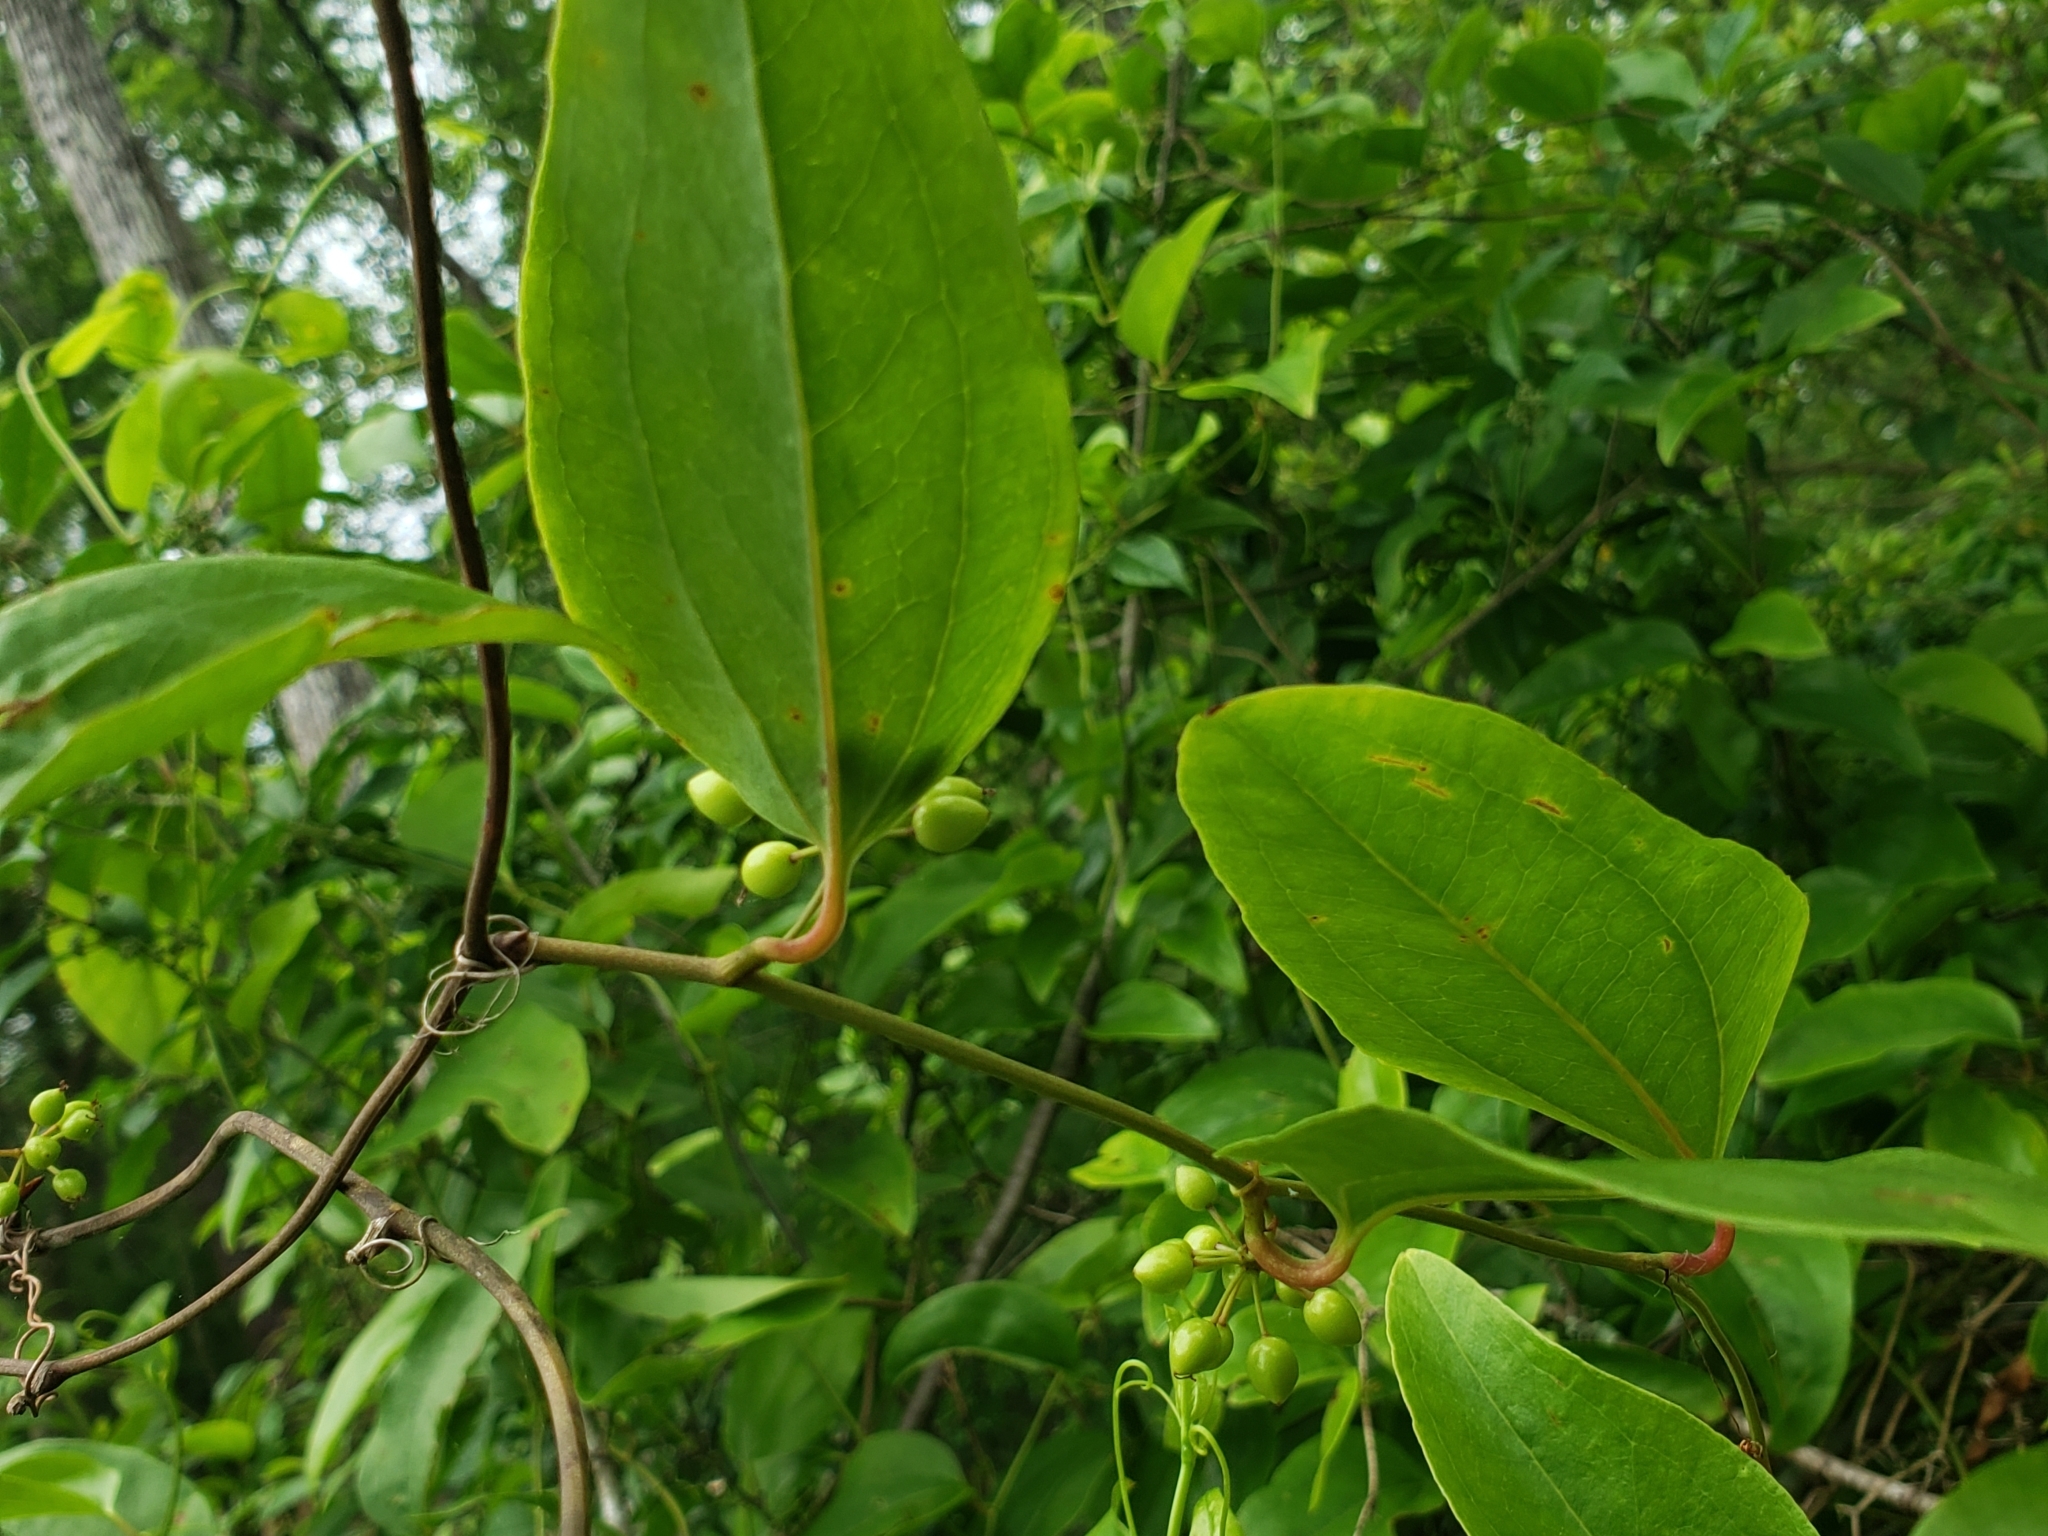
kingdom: Plantae
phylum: Tracheophyta
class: Liliopsida
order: Liliales
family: Smilacaceae
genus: Smilax
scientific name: Smilax walteri
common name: Coral greenbrier
